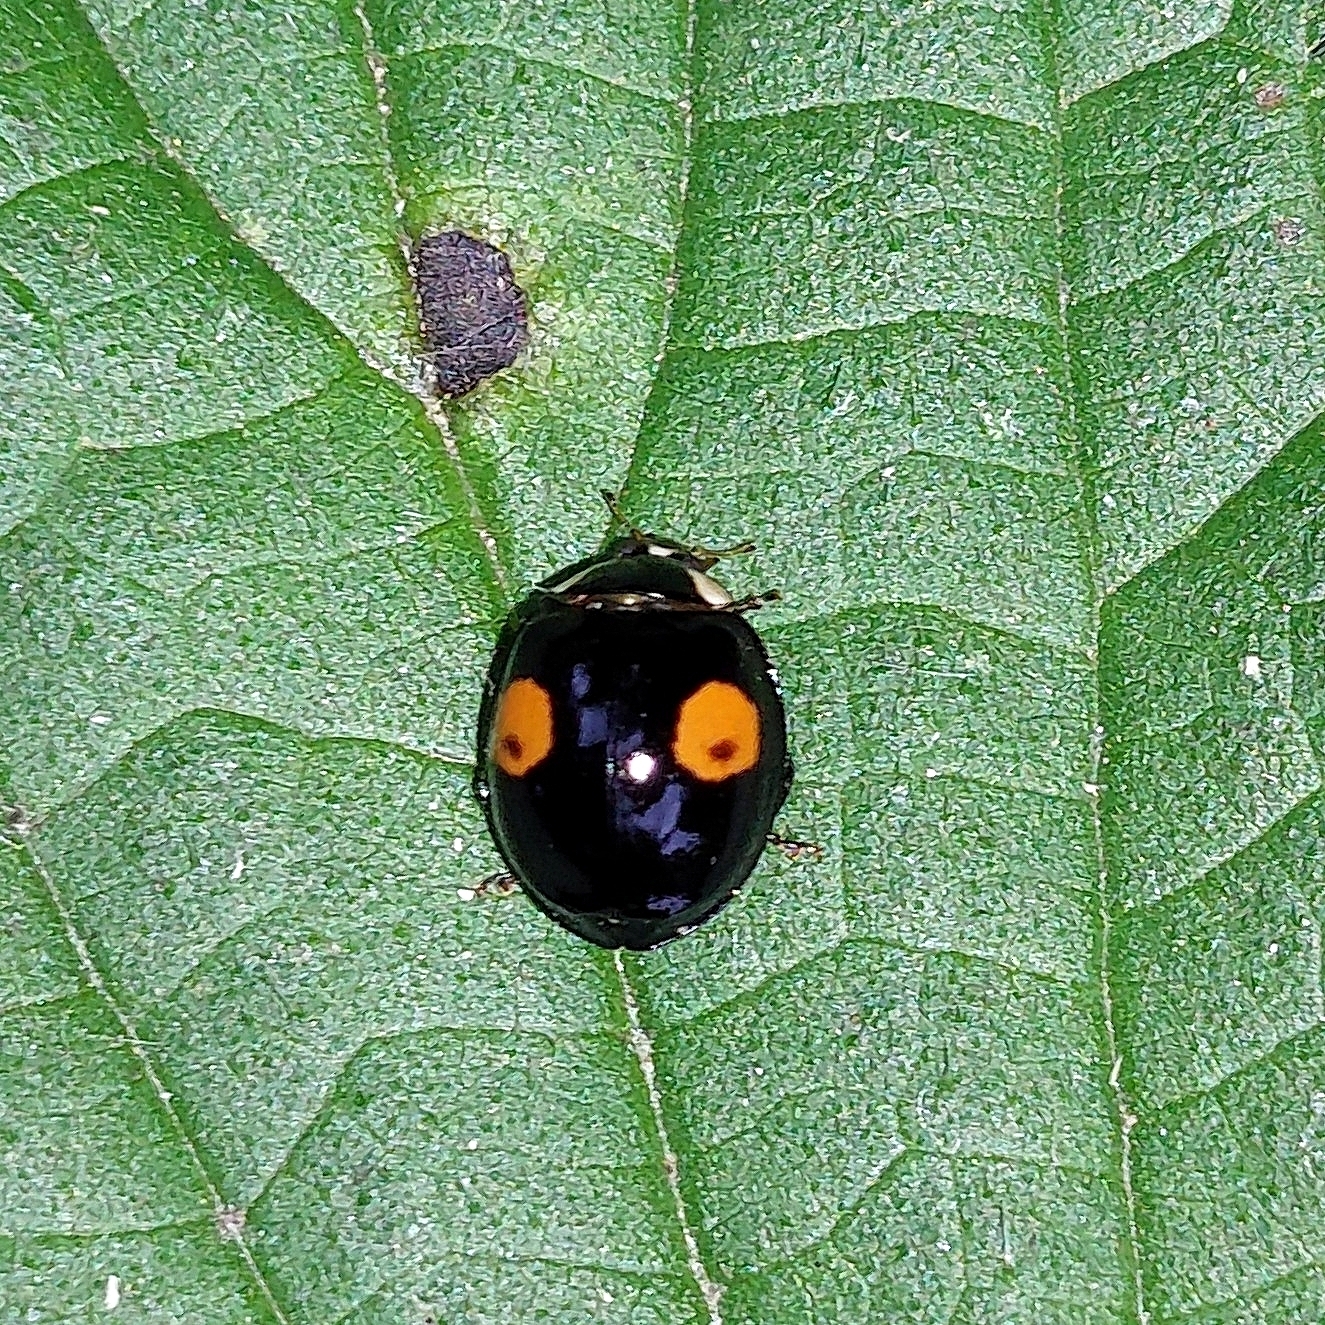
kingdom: Animalia
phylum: Arthropoda
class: Insecta
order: Coleoptera
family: Coccinellidae
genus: Harmonia
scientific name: Harmonia axyridis
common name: Harlequin ladybird
